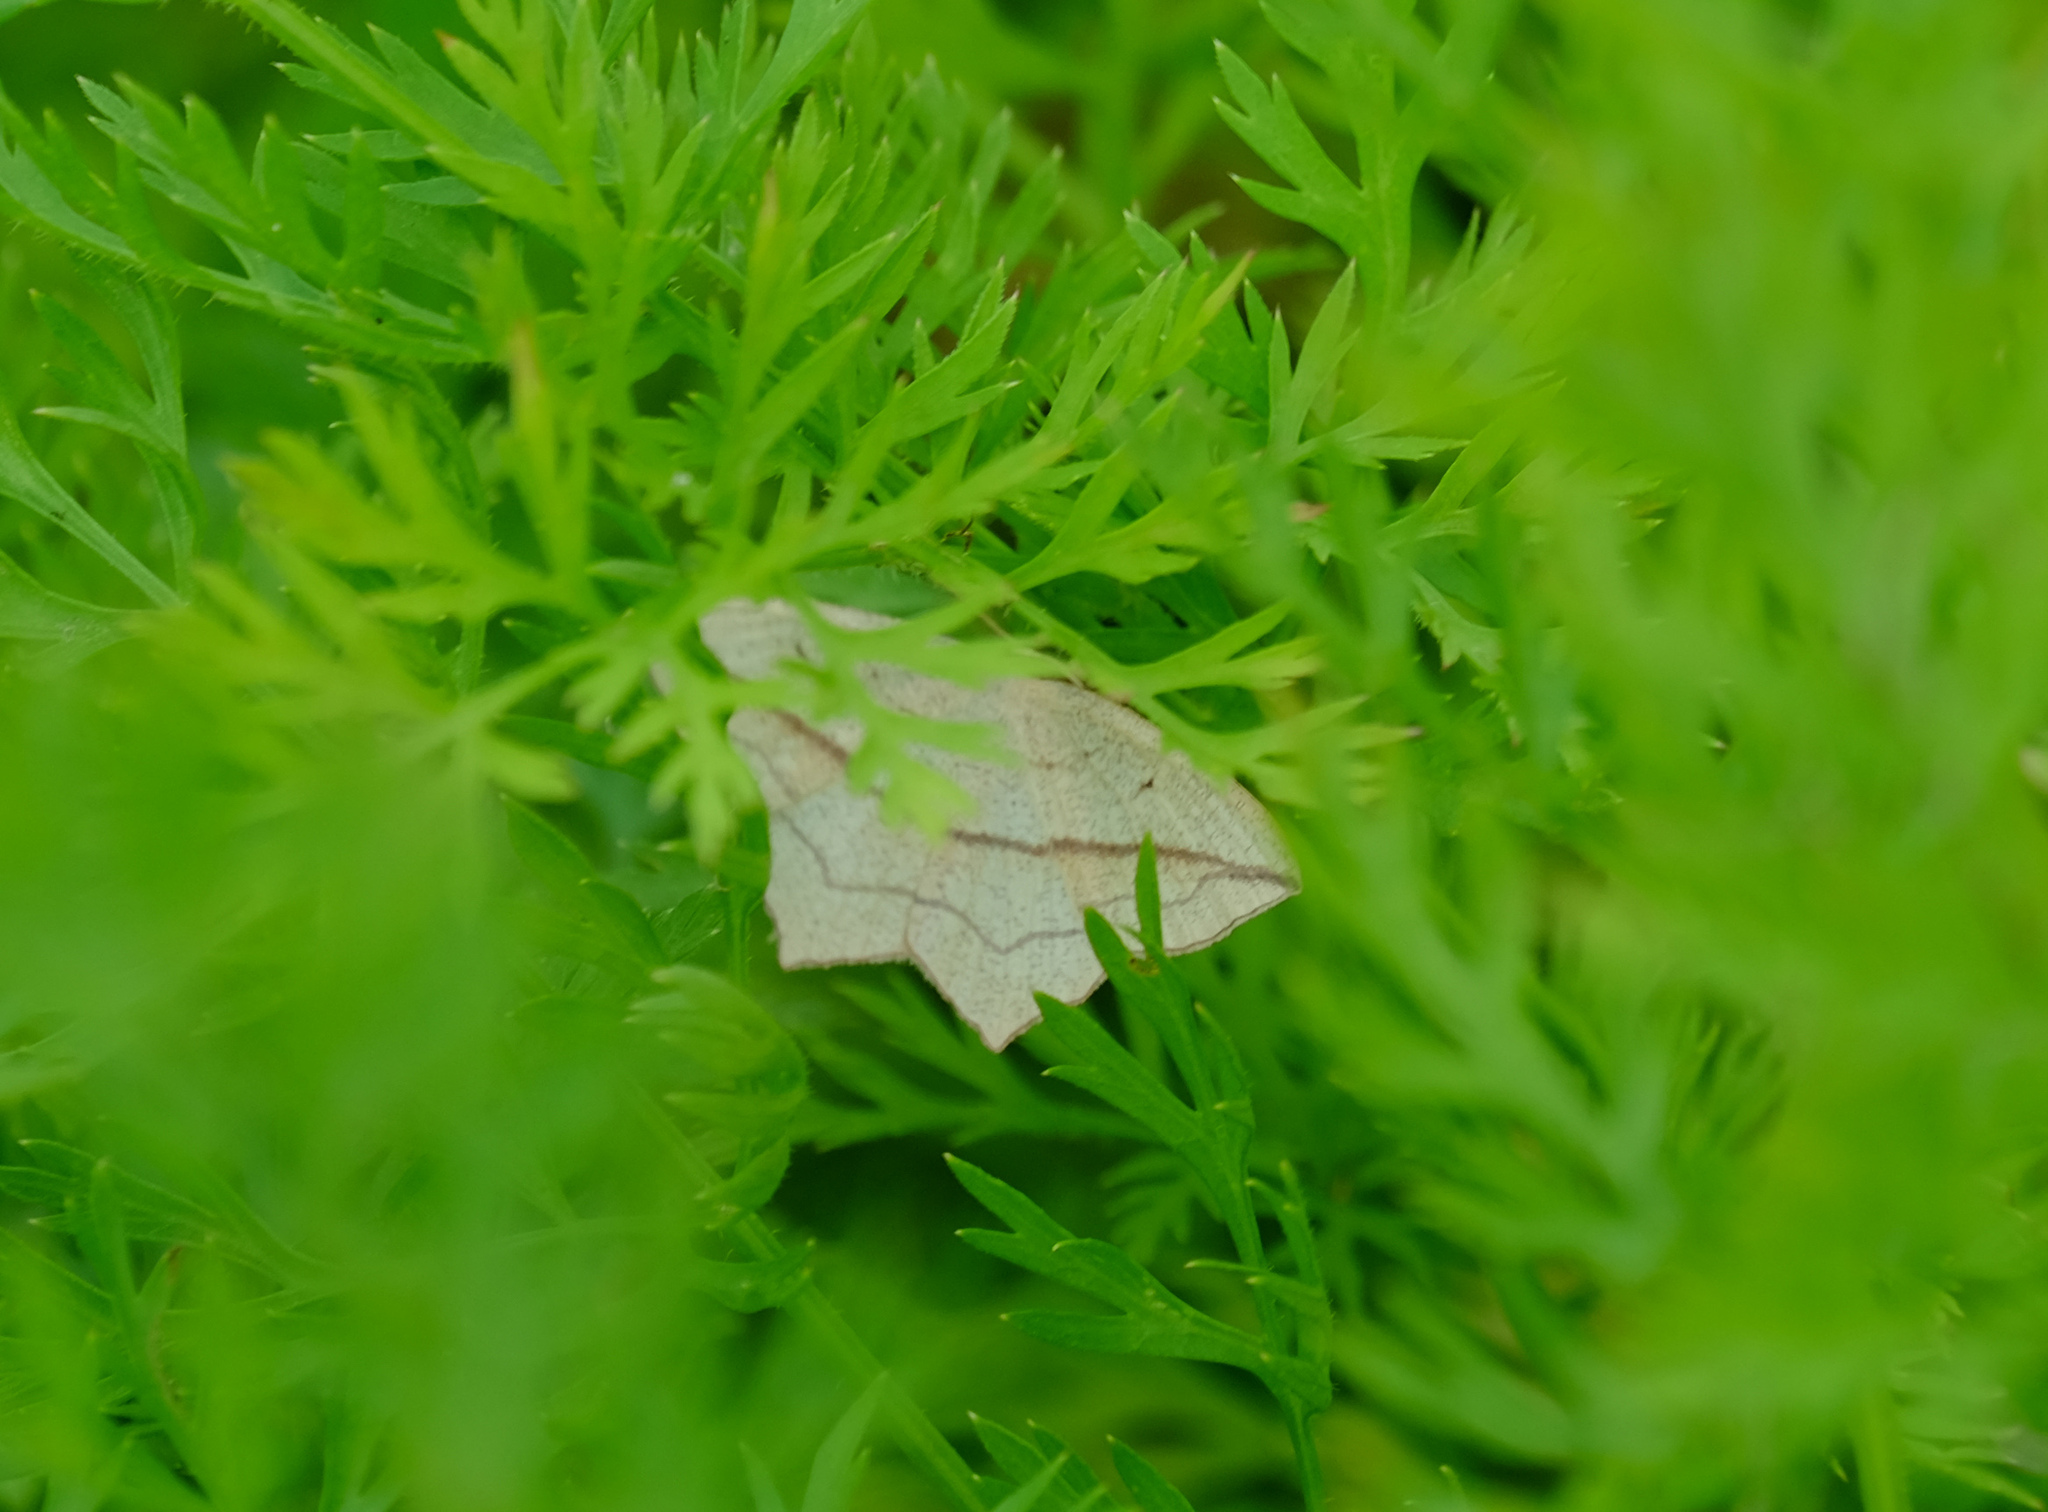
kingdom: Animalia
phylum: Arthropoda
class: Insecta
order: Lepidoptera
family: Geometridae
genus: Timandra
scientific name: Timandra comae
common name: Blood-vein
